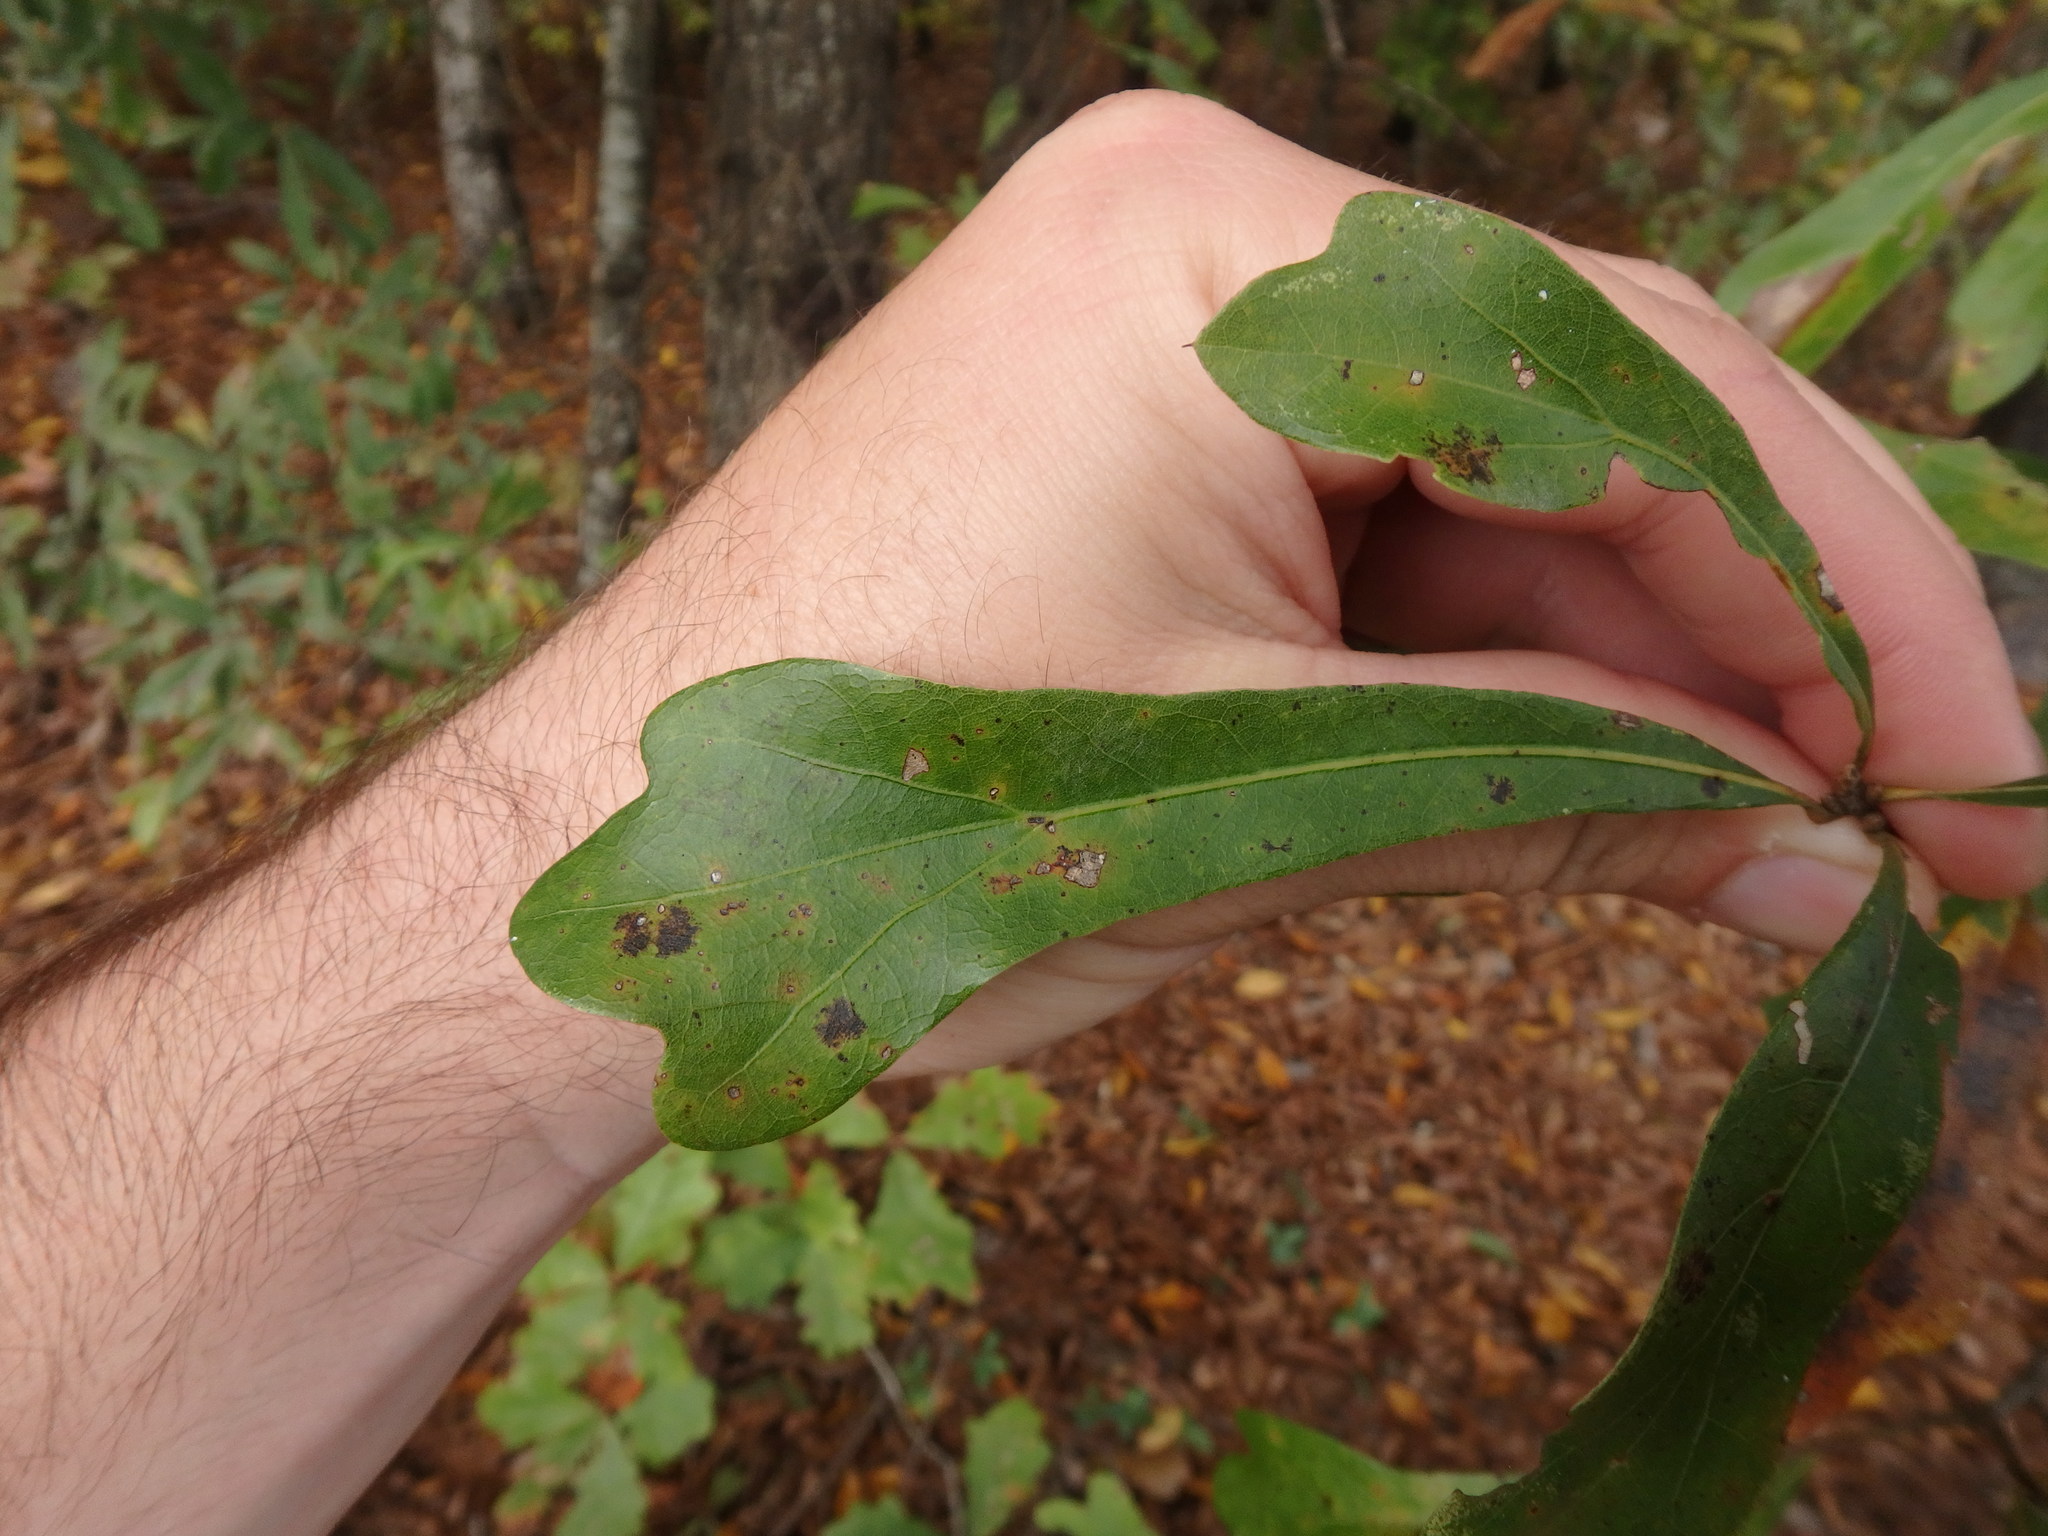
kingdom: Plantae
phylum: Tracheophyta
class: Magnoliopsida
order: Fagales
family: Fagaceae
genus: Quercus
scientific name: Quercus nigra
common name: Water oak
